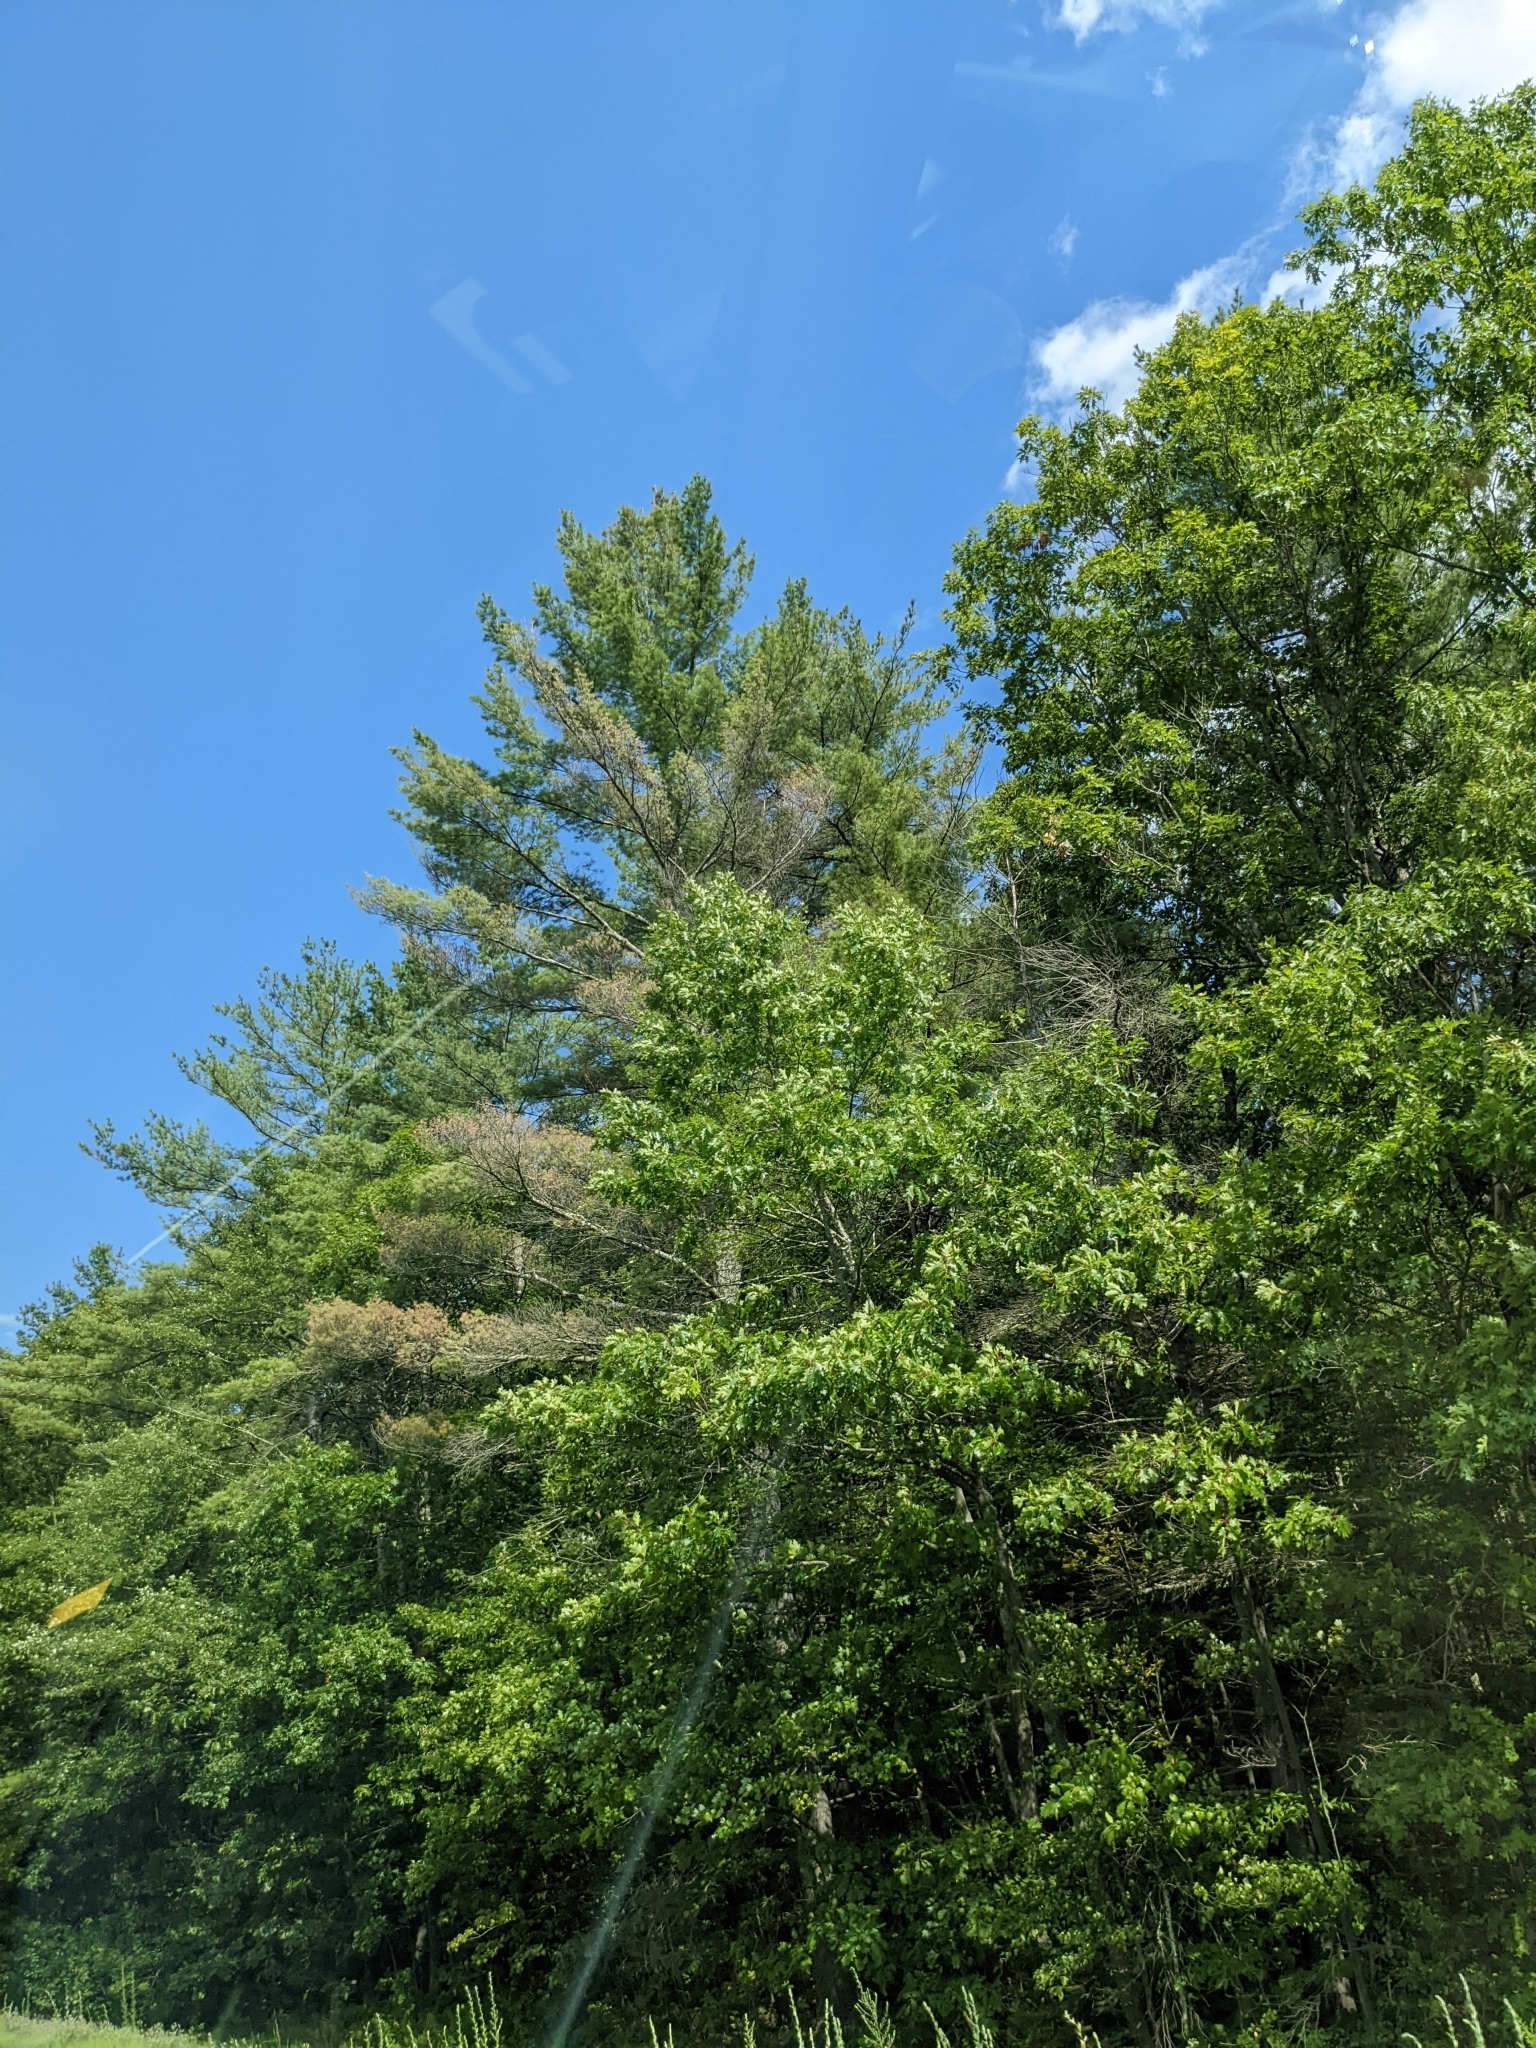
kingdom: Plantae
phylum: Tracheophyta
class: Pinopsida
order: Pinales
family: Pinaceae
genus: Pinus
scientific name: Pinus strobus
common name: Weymouth pine
